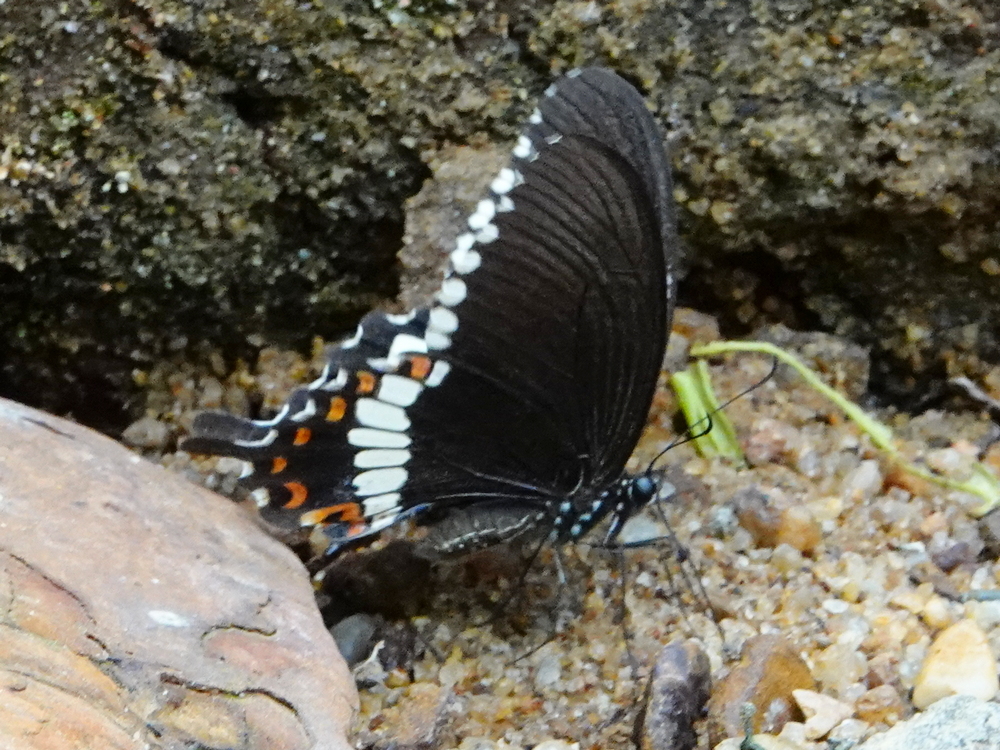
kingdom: Animalia
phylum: Arthropoda
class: Insecta
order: Lepidoptera
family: Papilionidae
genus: Papilio
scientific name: Papilio polytes
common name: Common mormon
